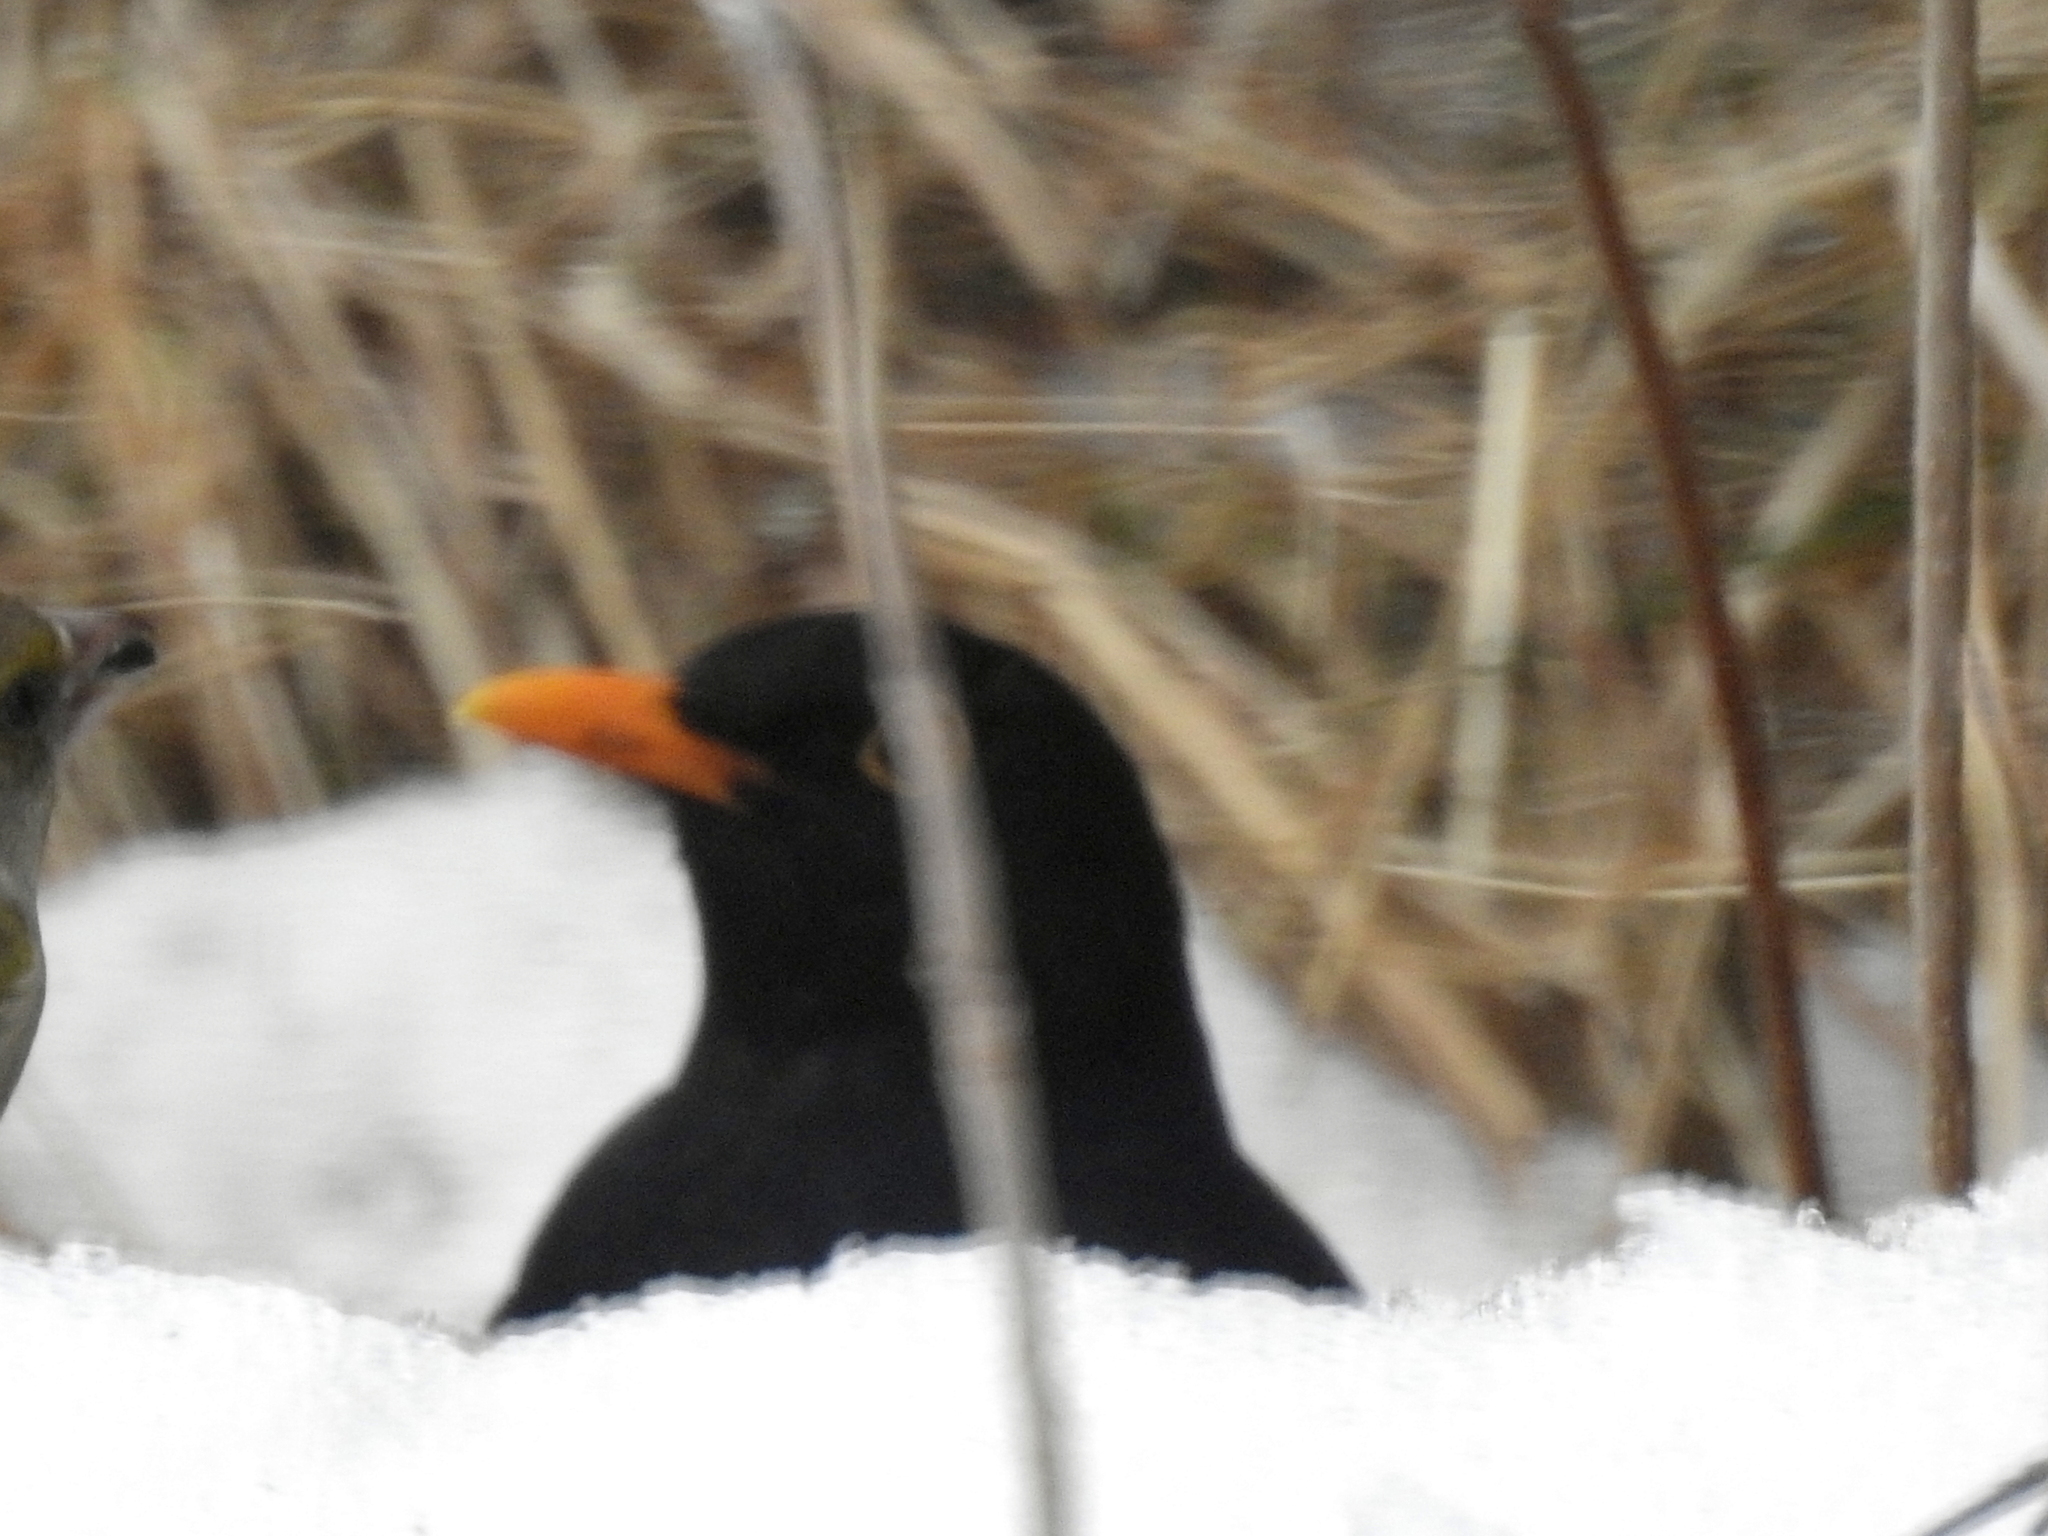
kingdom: Animalia
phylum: Chordata
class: Aves
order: Passeriformes
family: Turdidae
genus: Turdus
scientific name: Turdus merula
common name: Common blackbird
